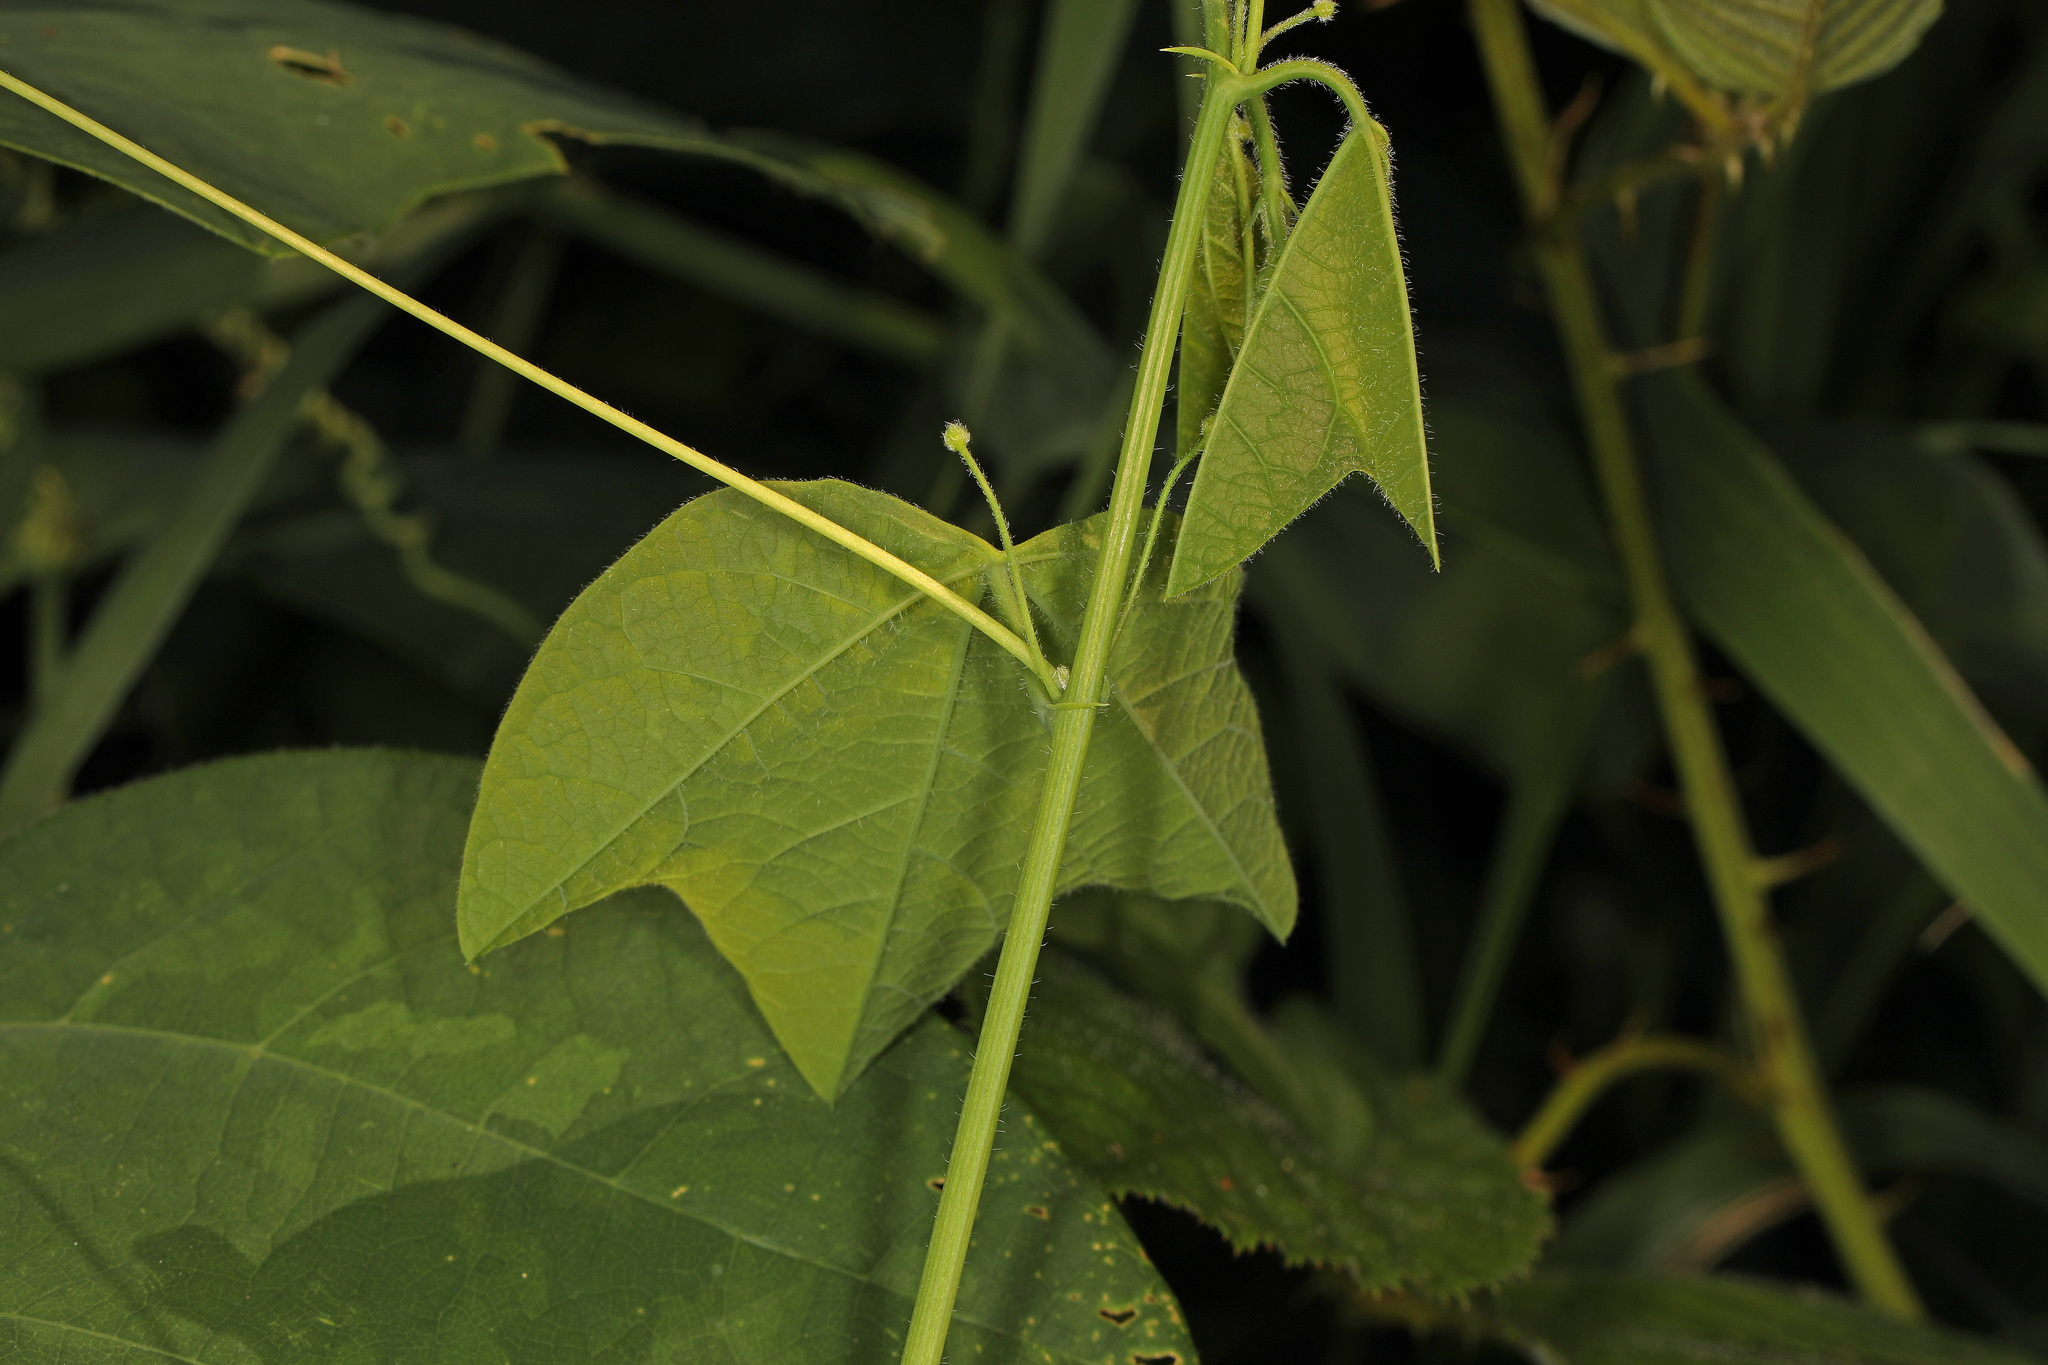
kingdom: Plantae
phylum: Tracheophyta
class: Magnoliopsida
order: Malpighiales
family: Passifloraceae
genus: Passiflora
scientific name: Passiflora lutea
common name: Yellow passionflower
